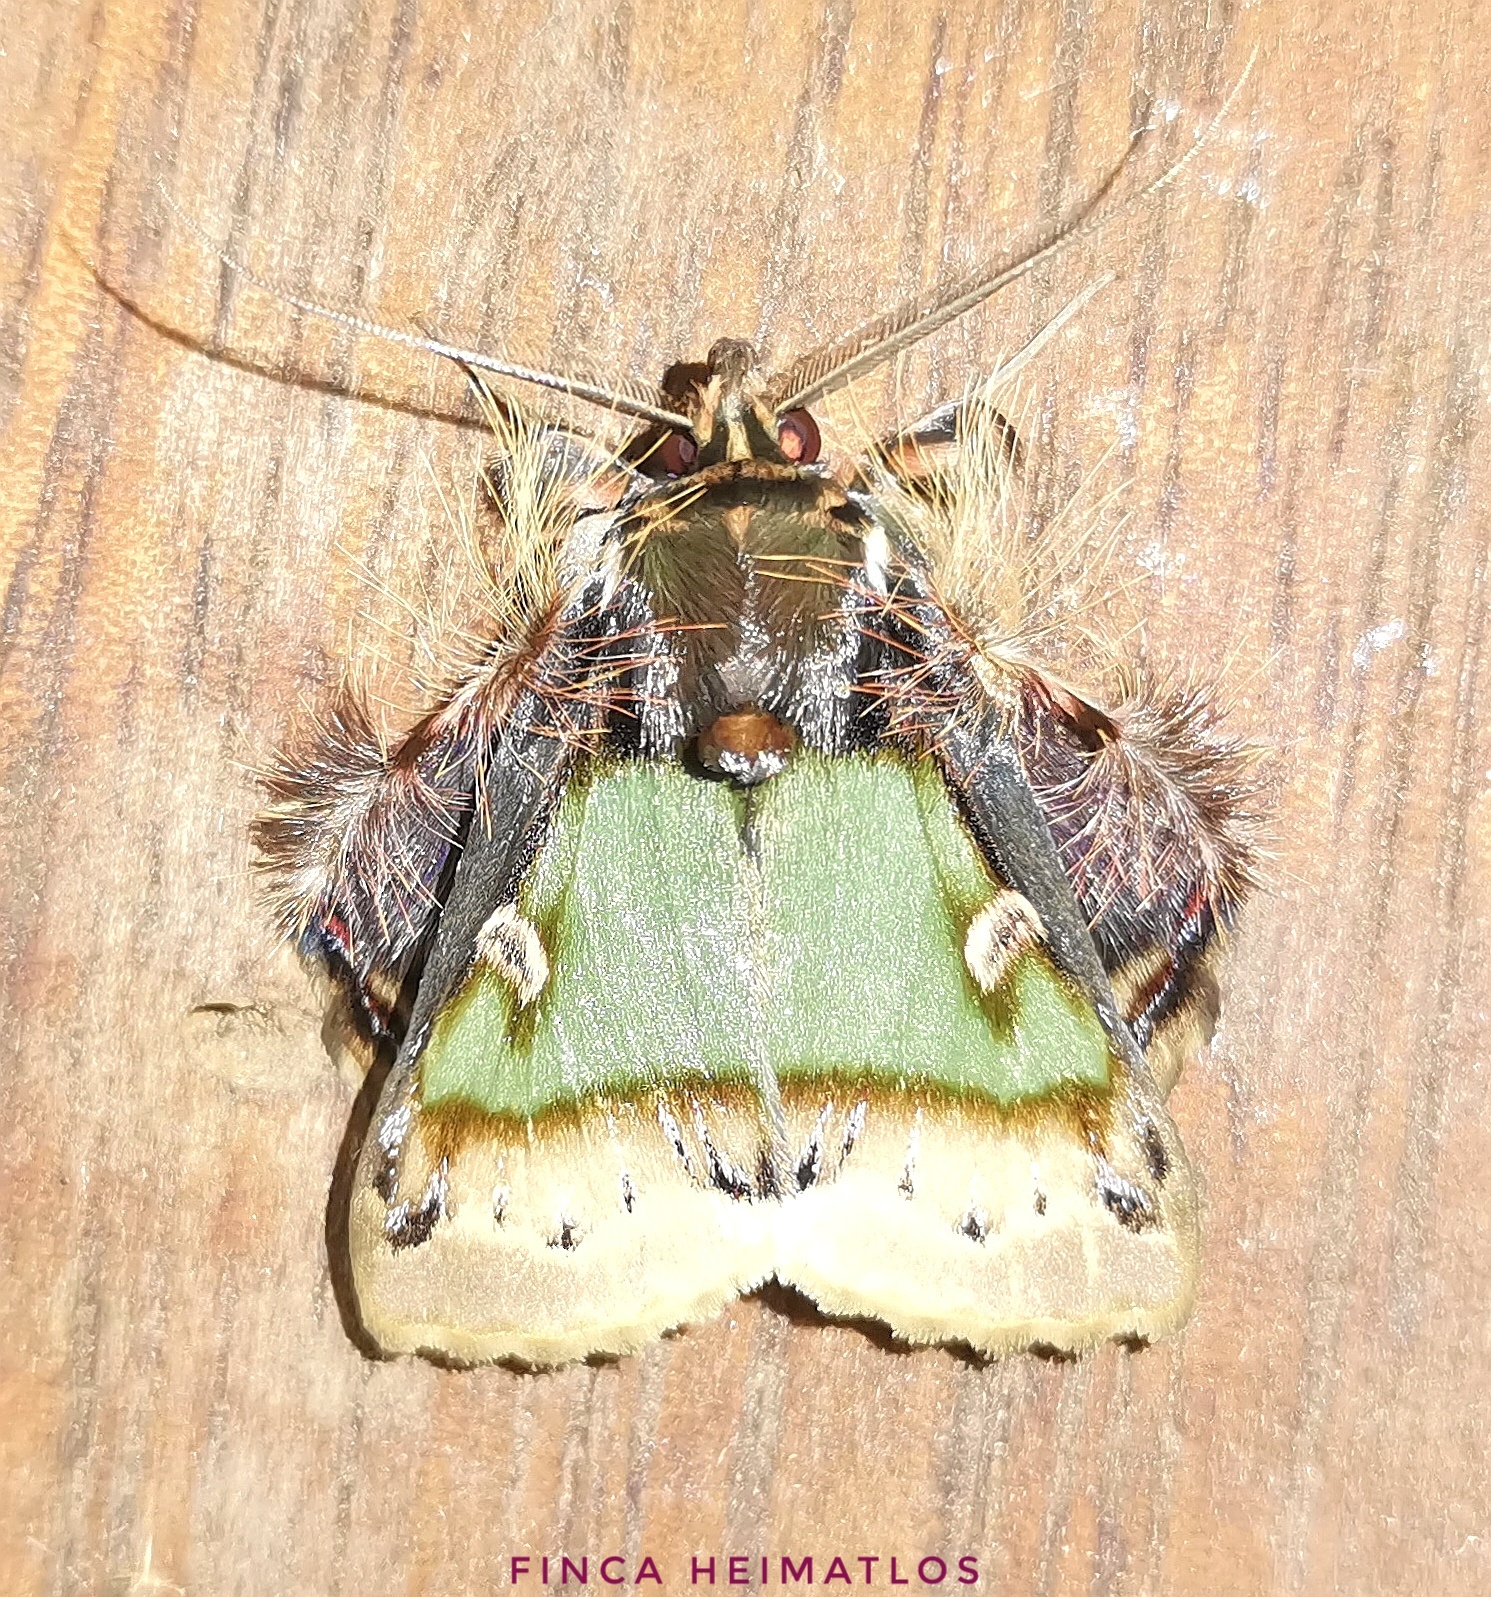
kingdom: Animalia
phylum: Arthropoda
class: Insecta
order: Lepidoptera
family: Erebidae
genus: Ceroctena
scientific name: Ceroctena amynta
